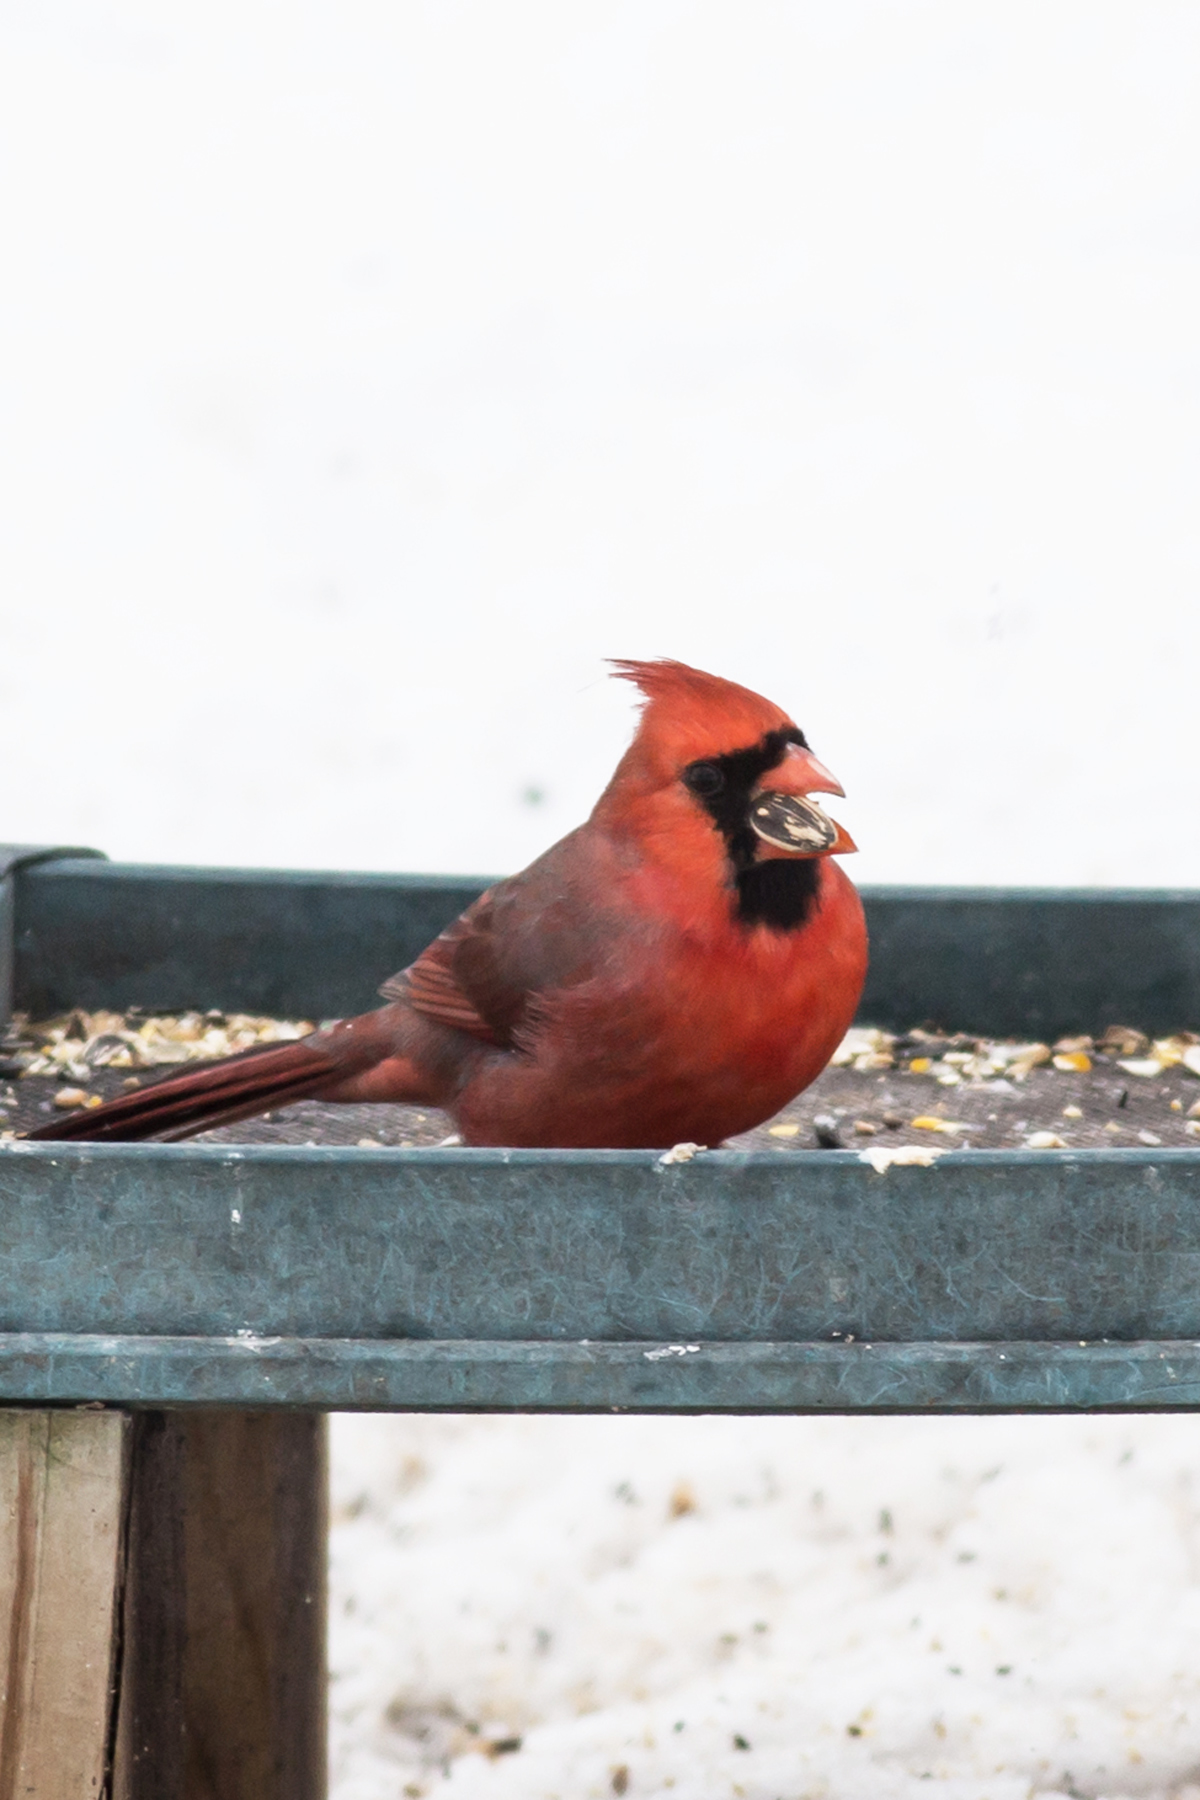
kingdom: Animalia
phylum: Chordata
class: Aves
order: Passeriformes
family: Cardinalidae
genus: Cardinalis
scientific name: Cardinalis cardinalis
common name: Northern cardinal
